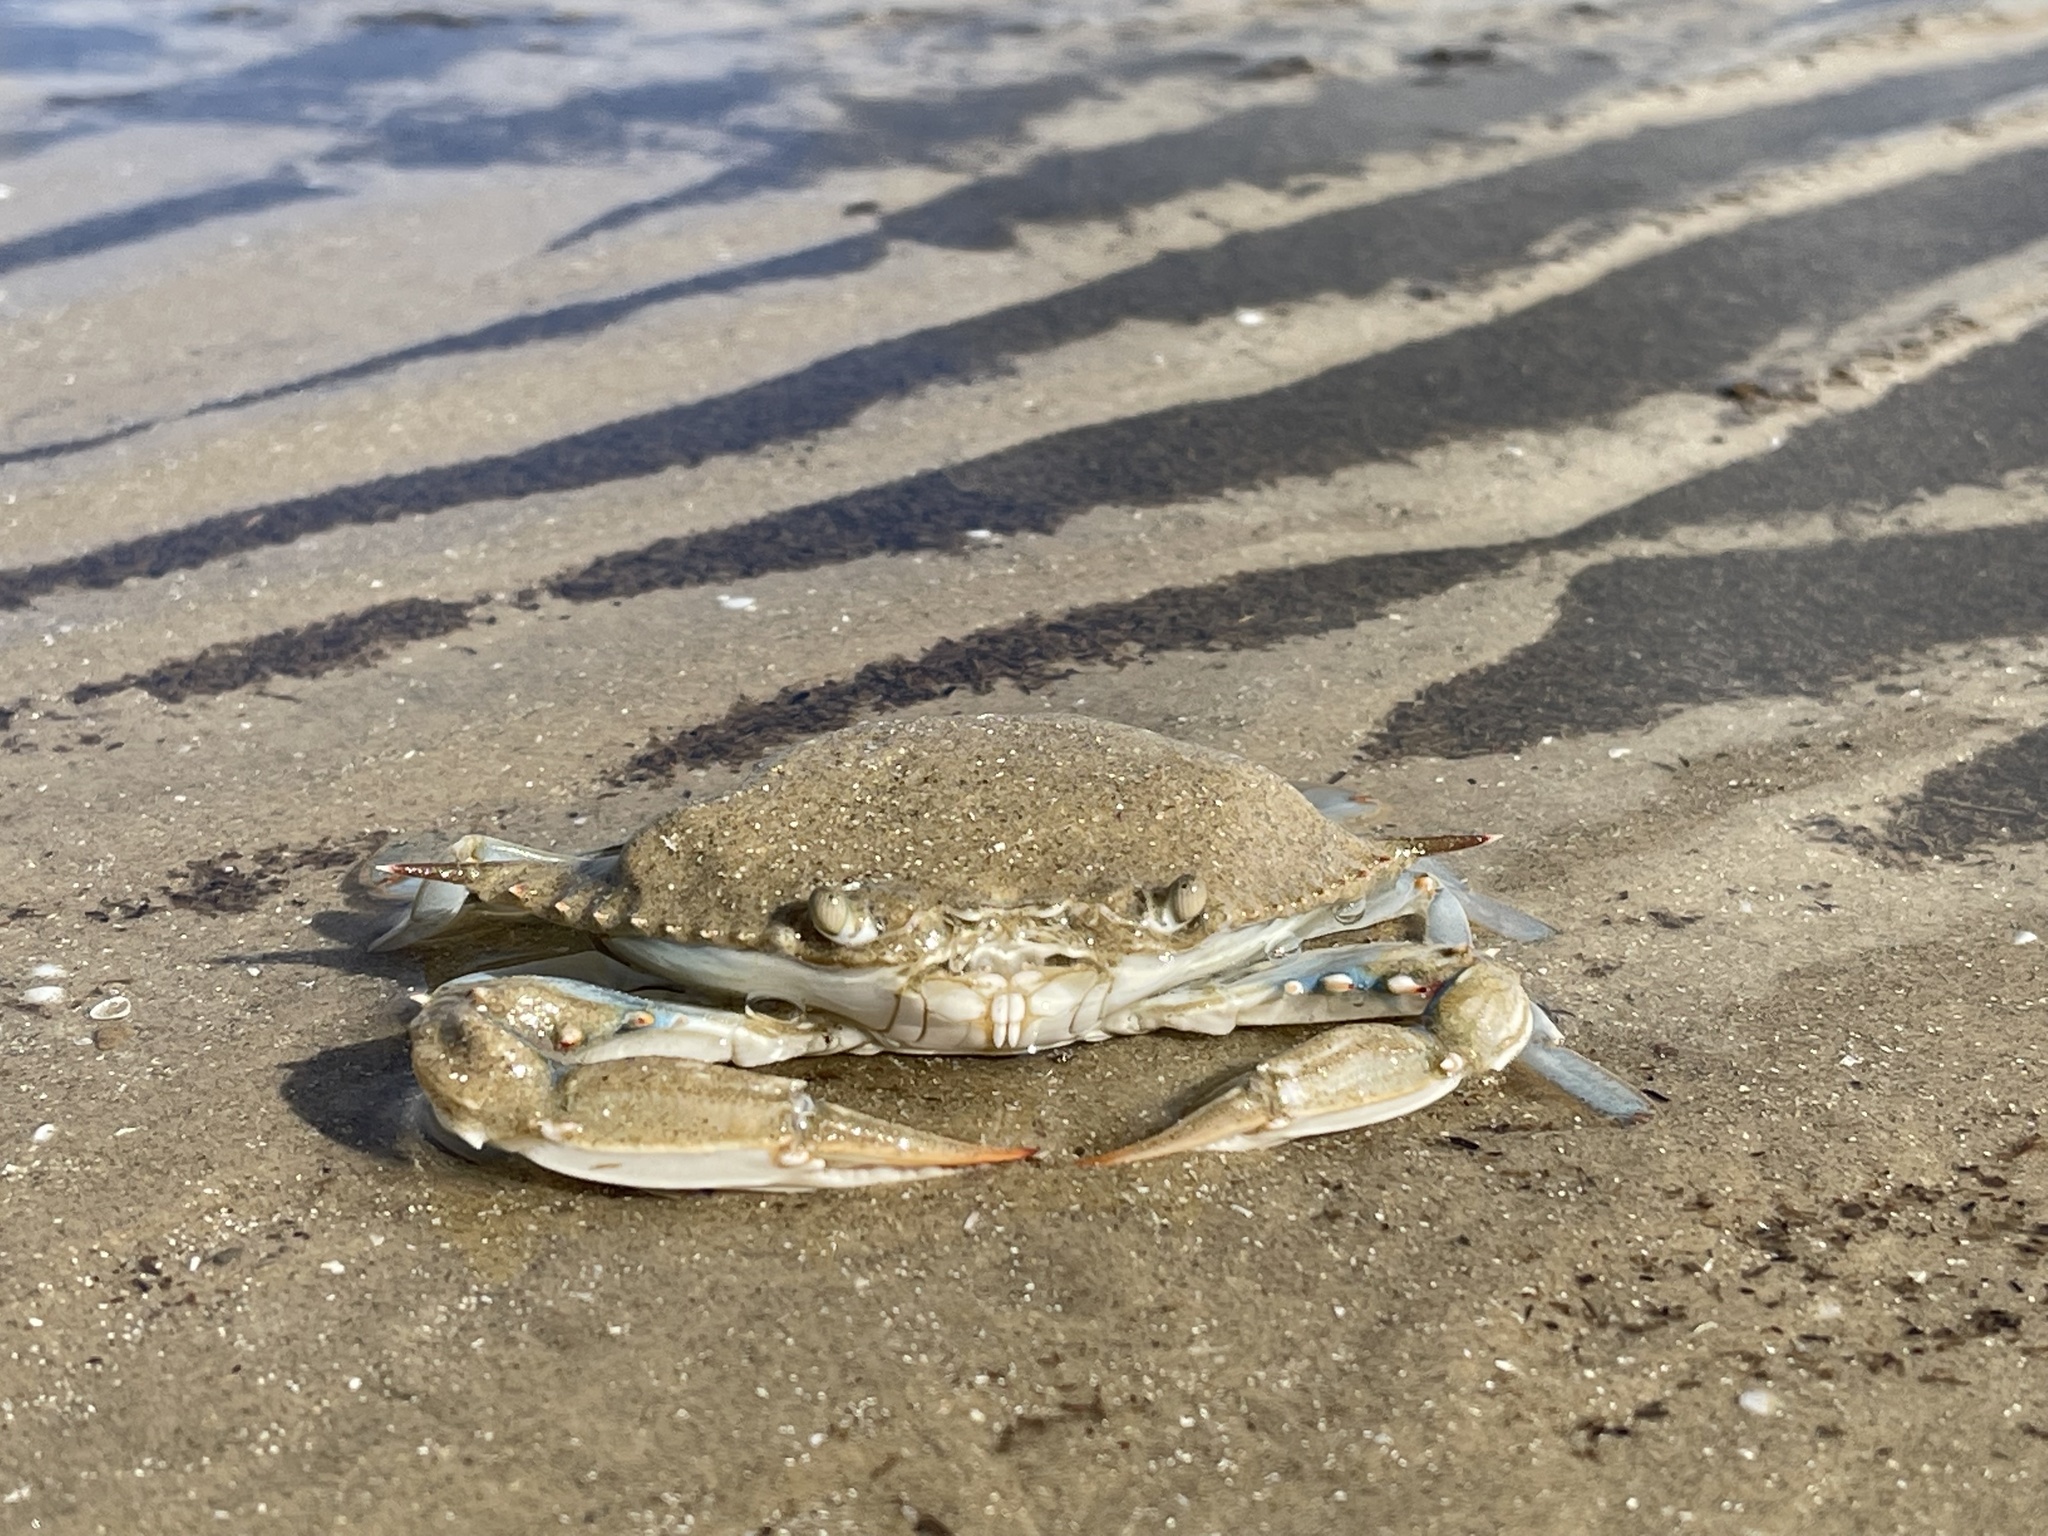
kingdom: Animalia
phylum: Arthropoda
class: Malacostraca
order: Decapoda
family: Portunidae
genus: Callinectes
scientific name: Callinectes sapidus
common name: Blue crab
